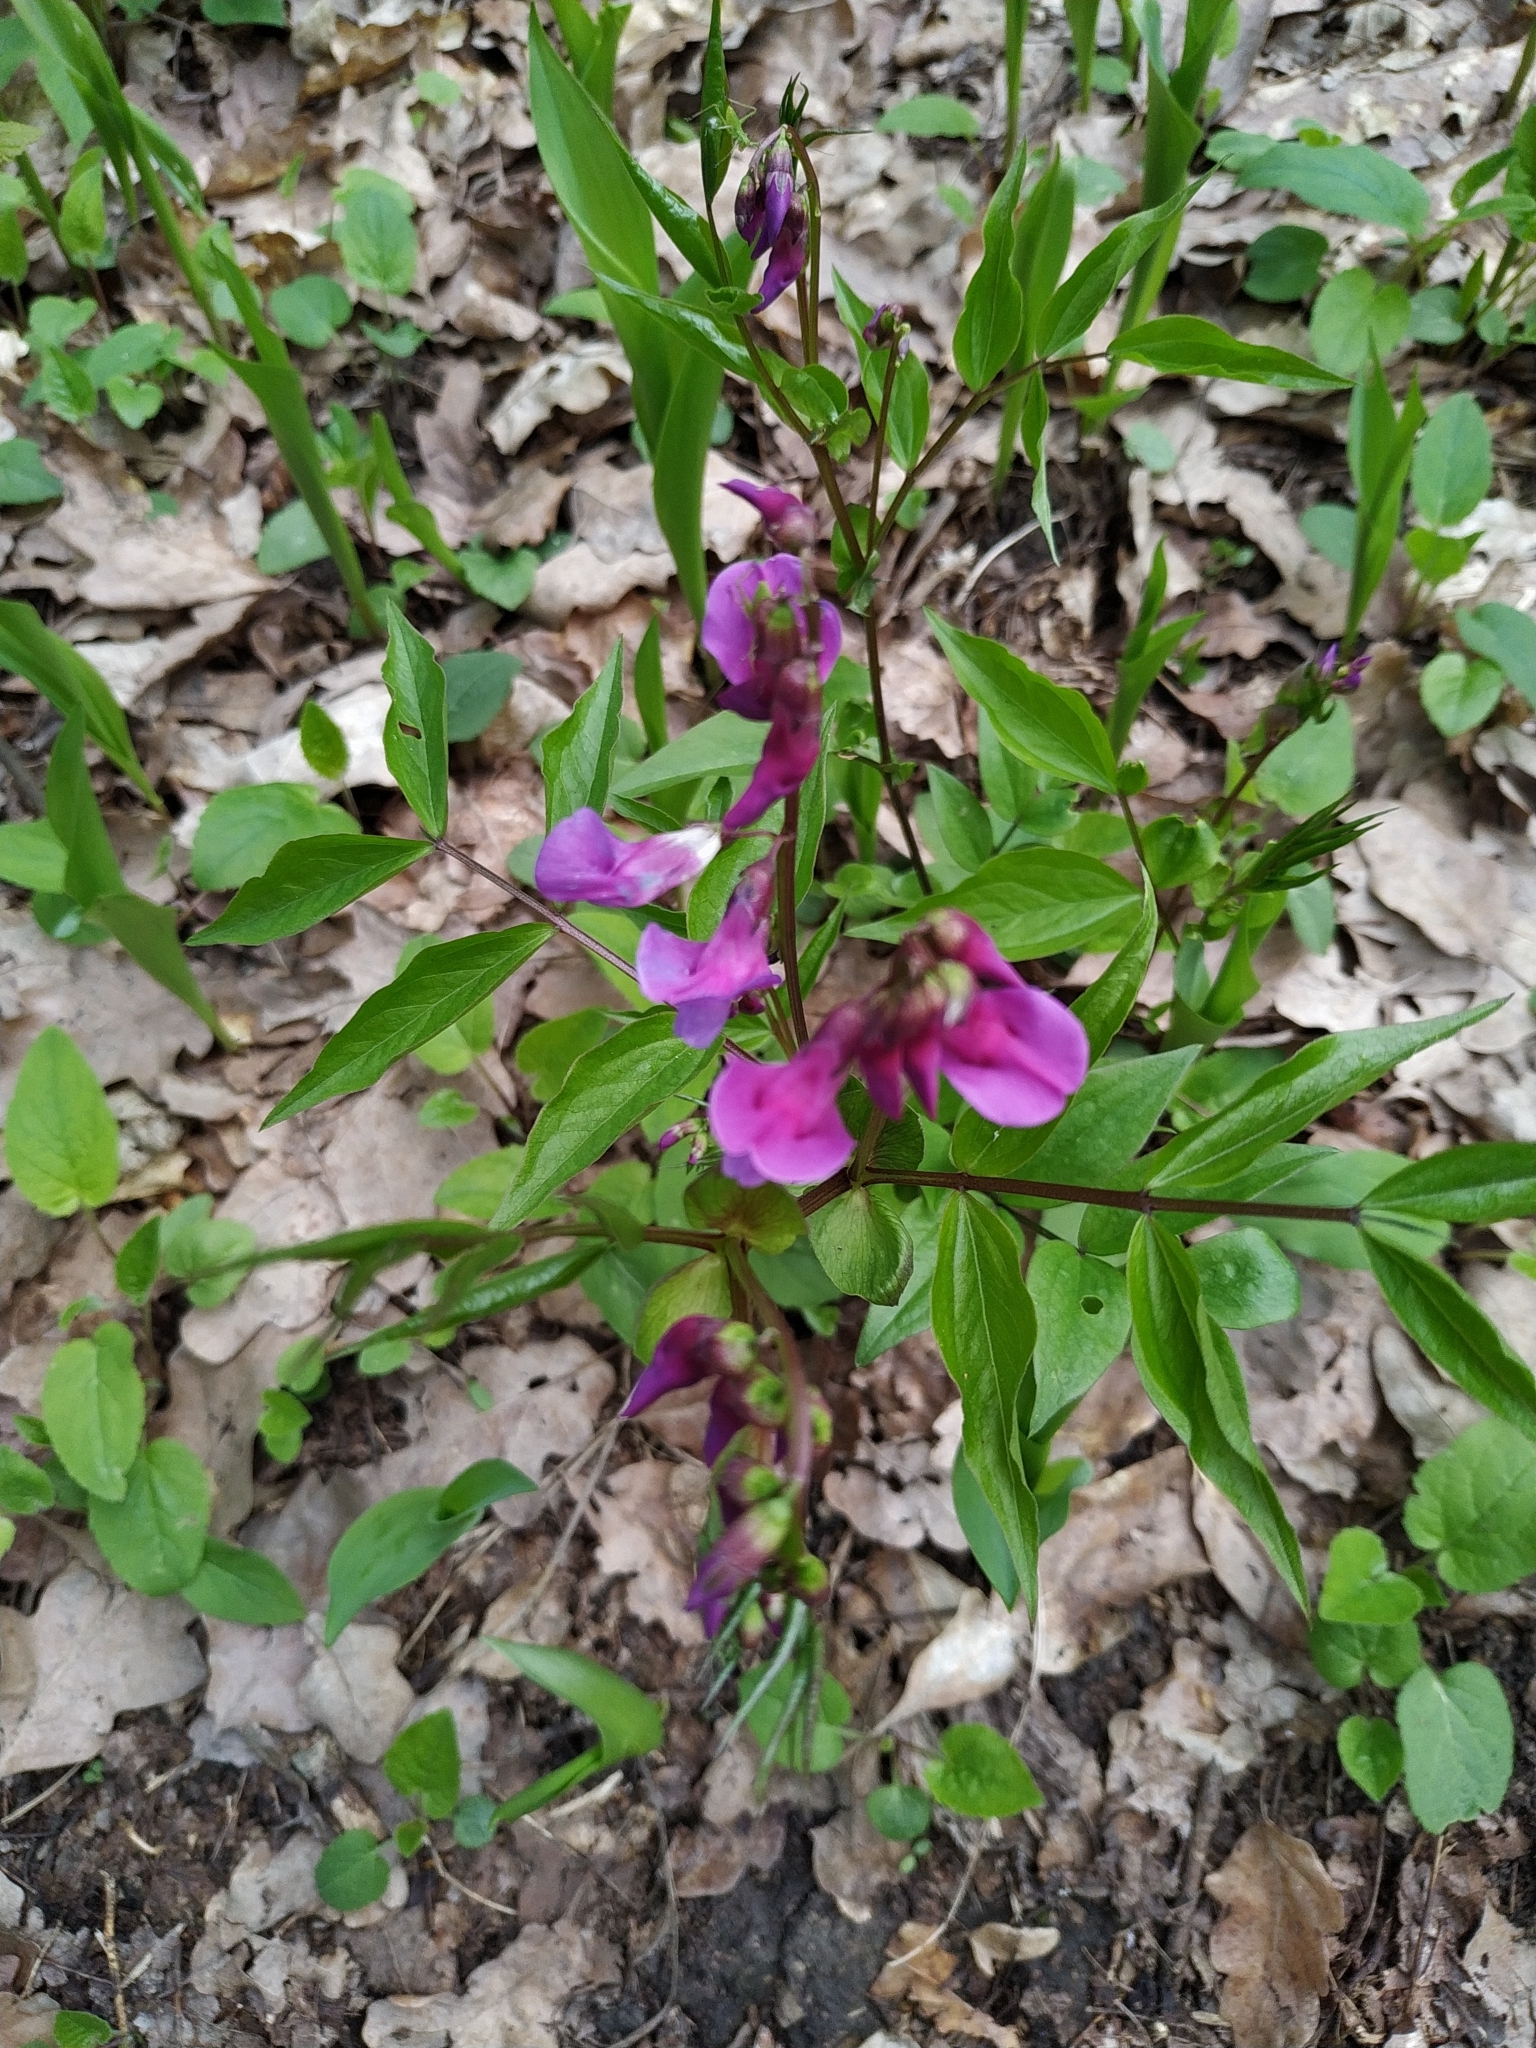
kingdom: Plantae
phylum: Tracheophyta
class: Magnoliopsida
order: Fabales
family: Fabaceae
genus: Lathyrus
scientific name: Lathyrus vernus
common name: Spring pea
